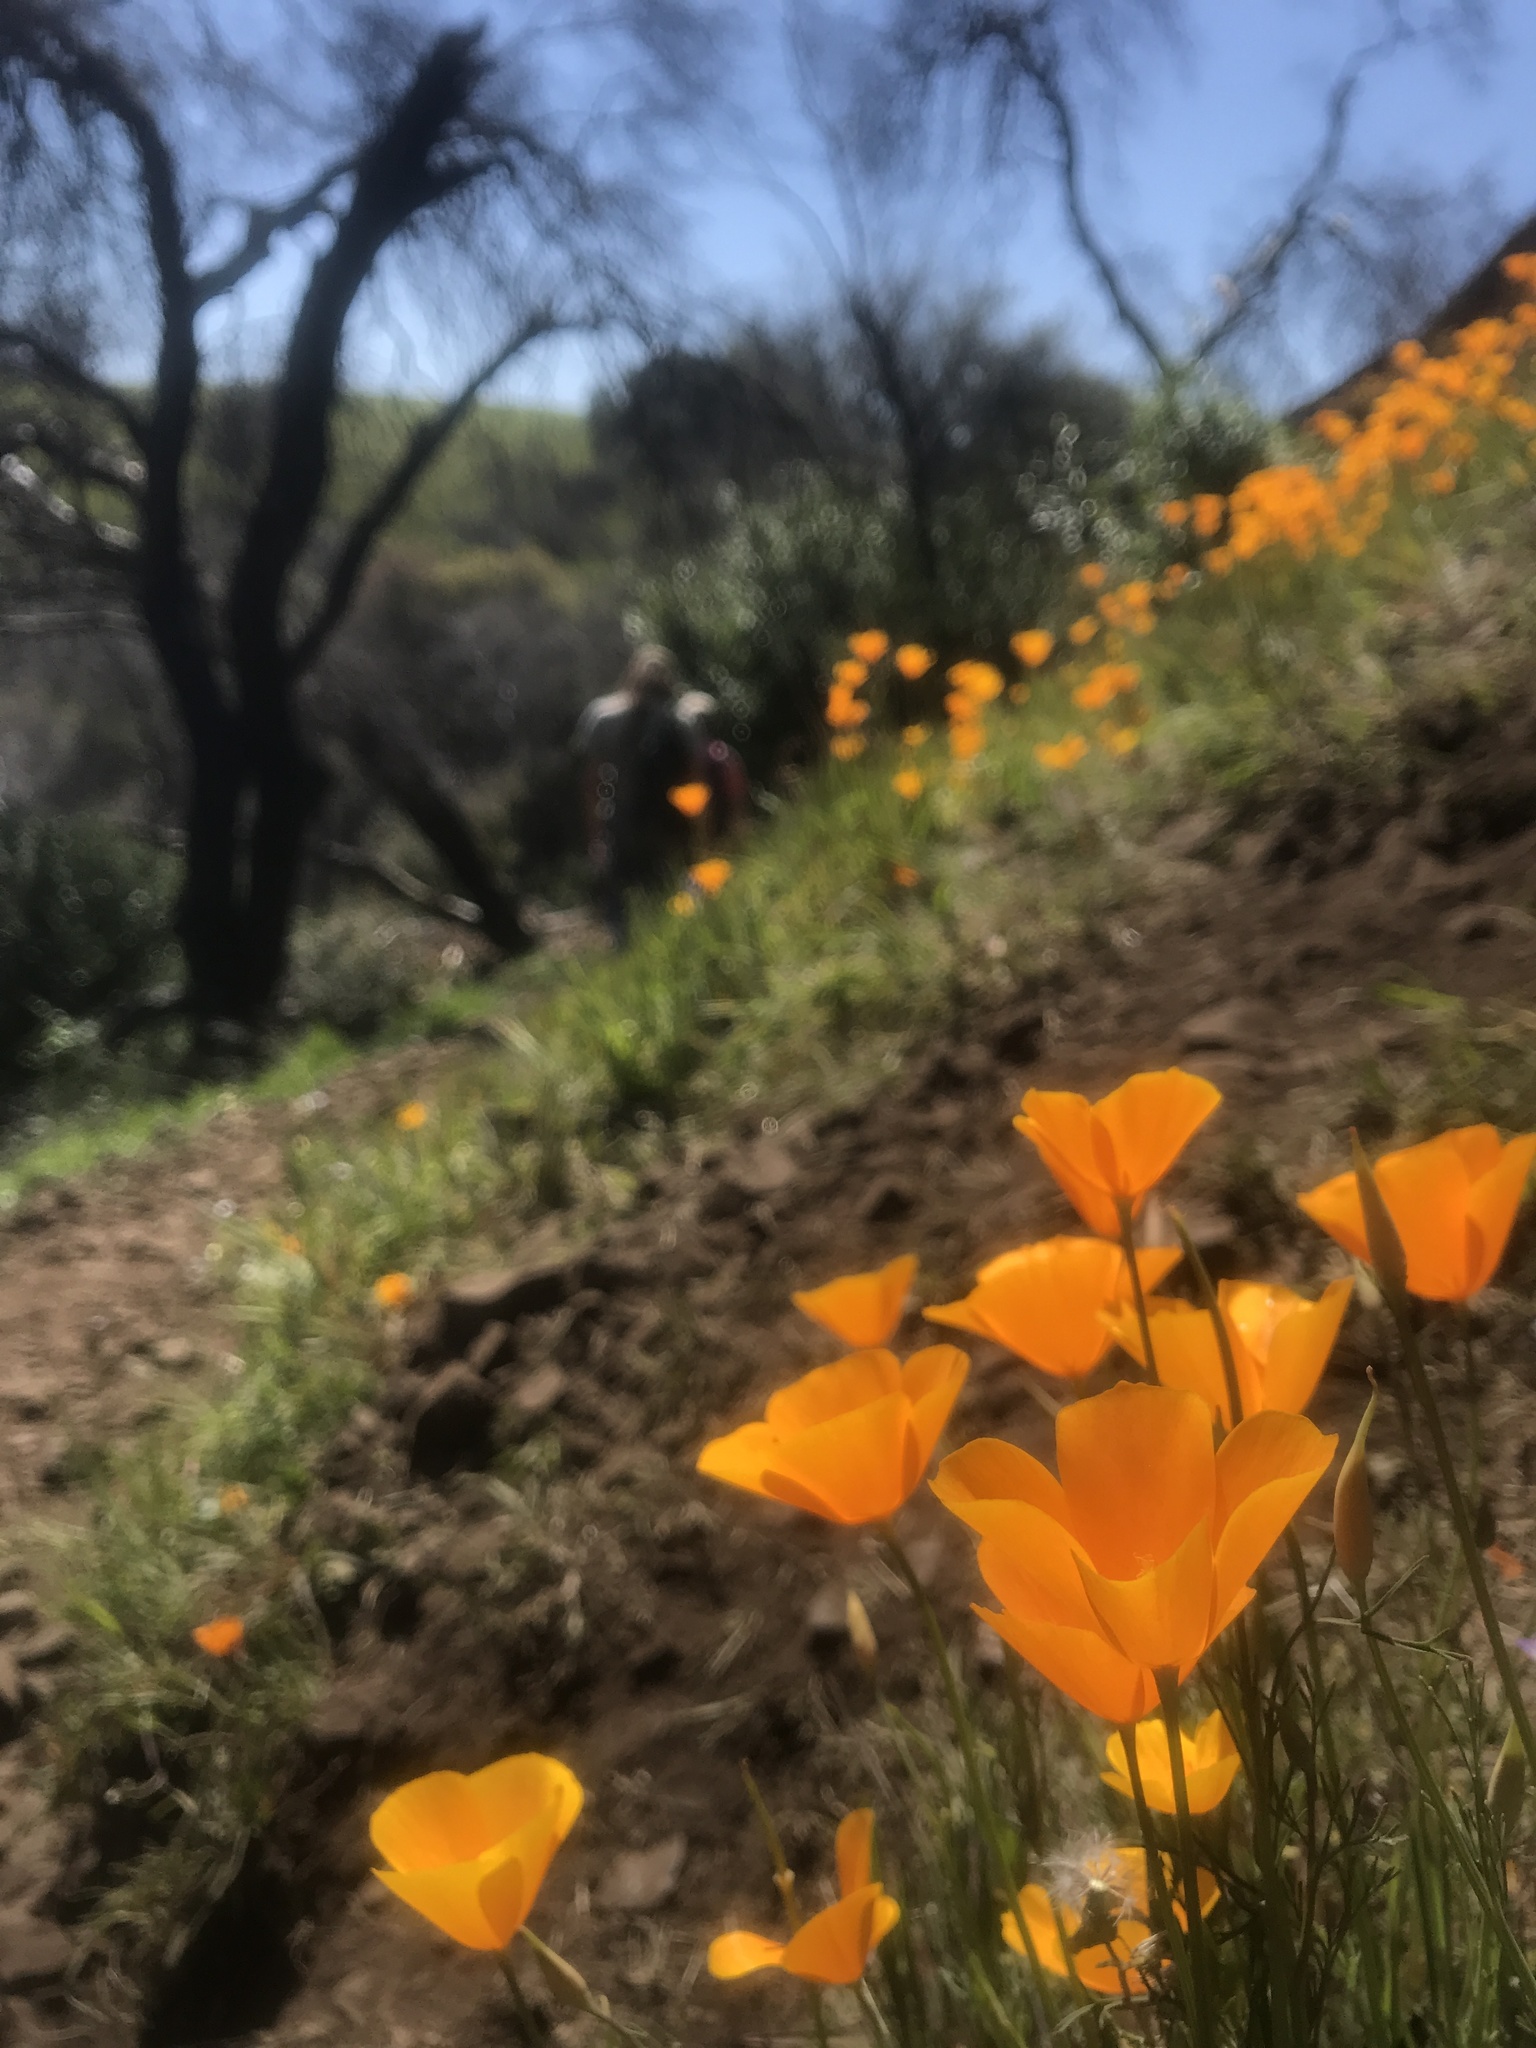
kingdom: Plantae
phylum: Tracheophyta
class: Magnoliopsida
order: Ranunculales
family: Papaveraceae
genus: Eschscholzia
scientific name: Eschscholzia caespitosa
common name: Tufted california-poppy
